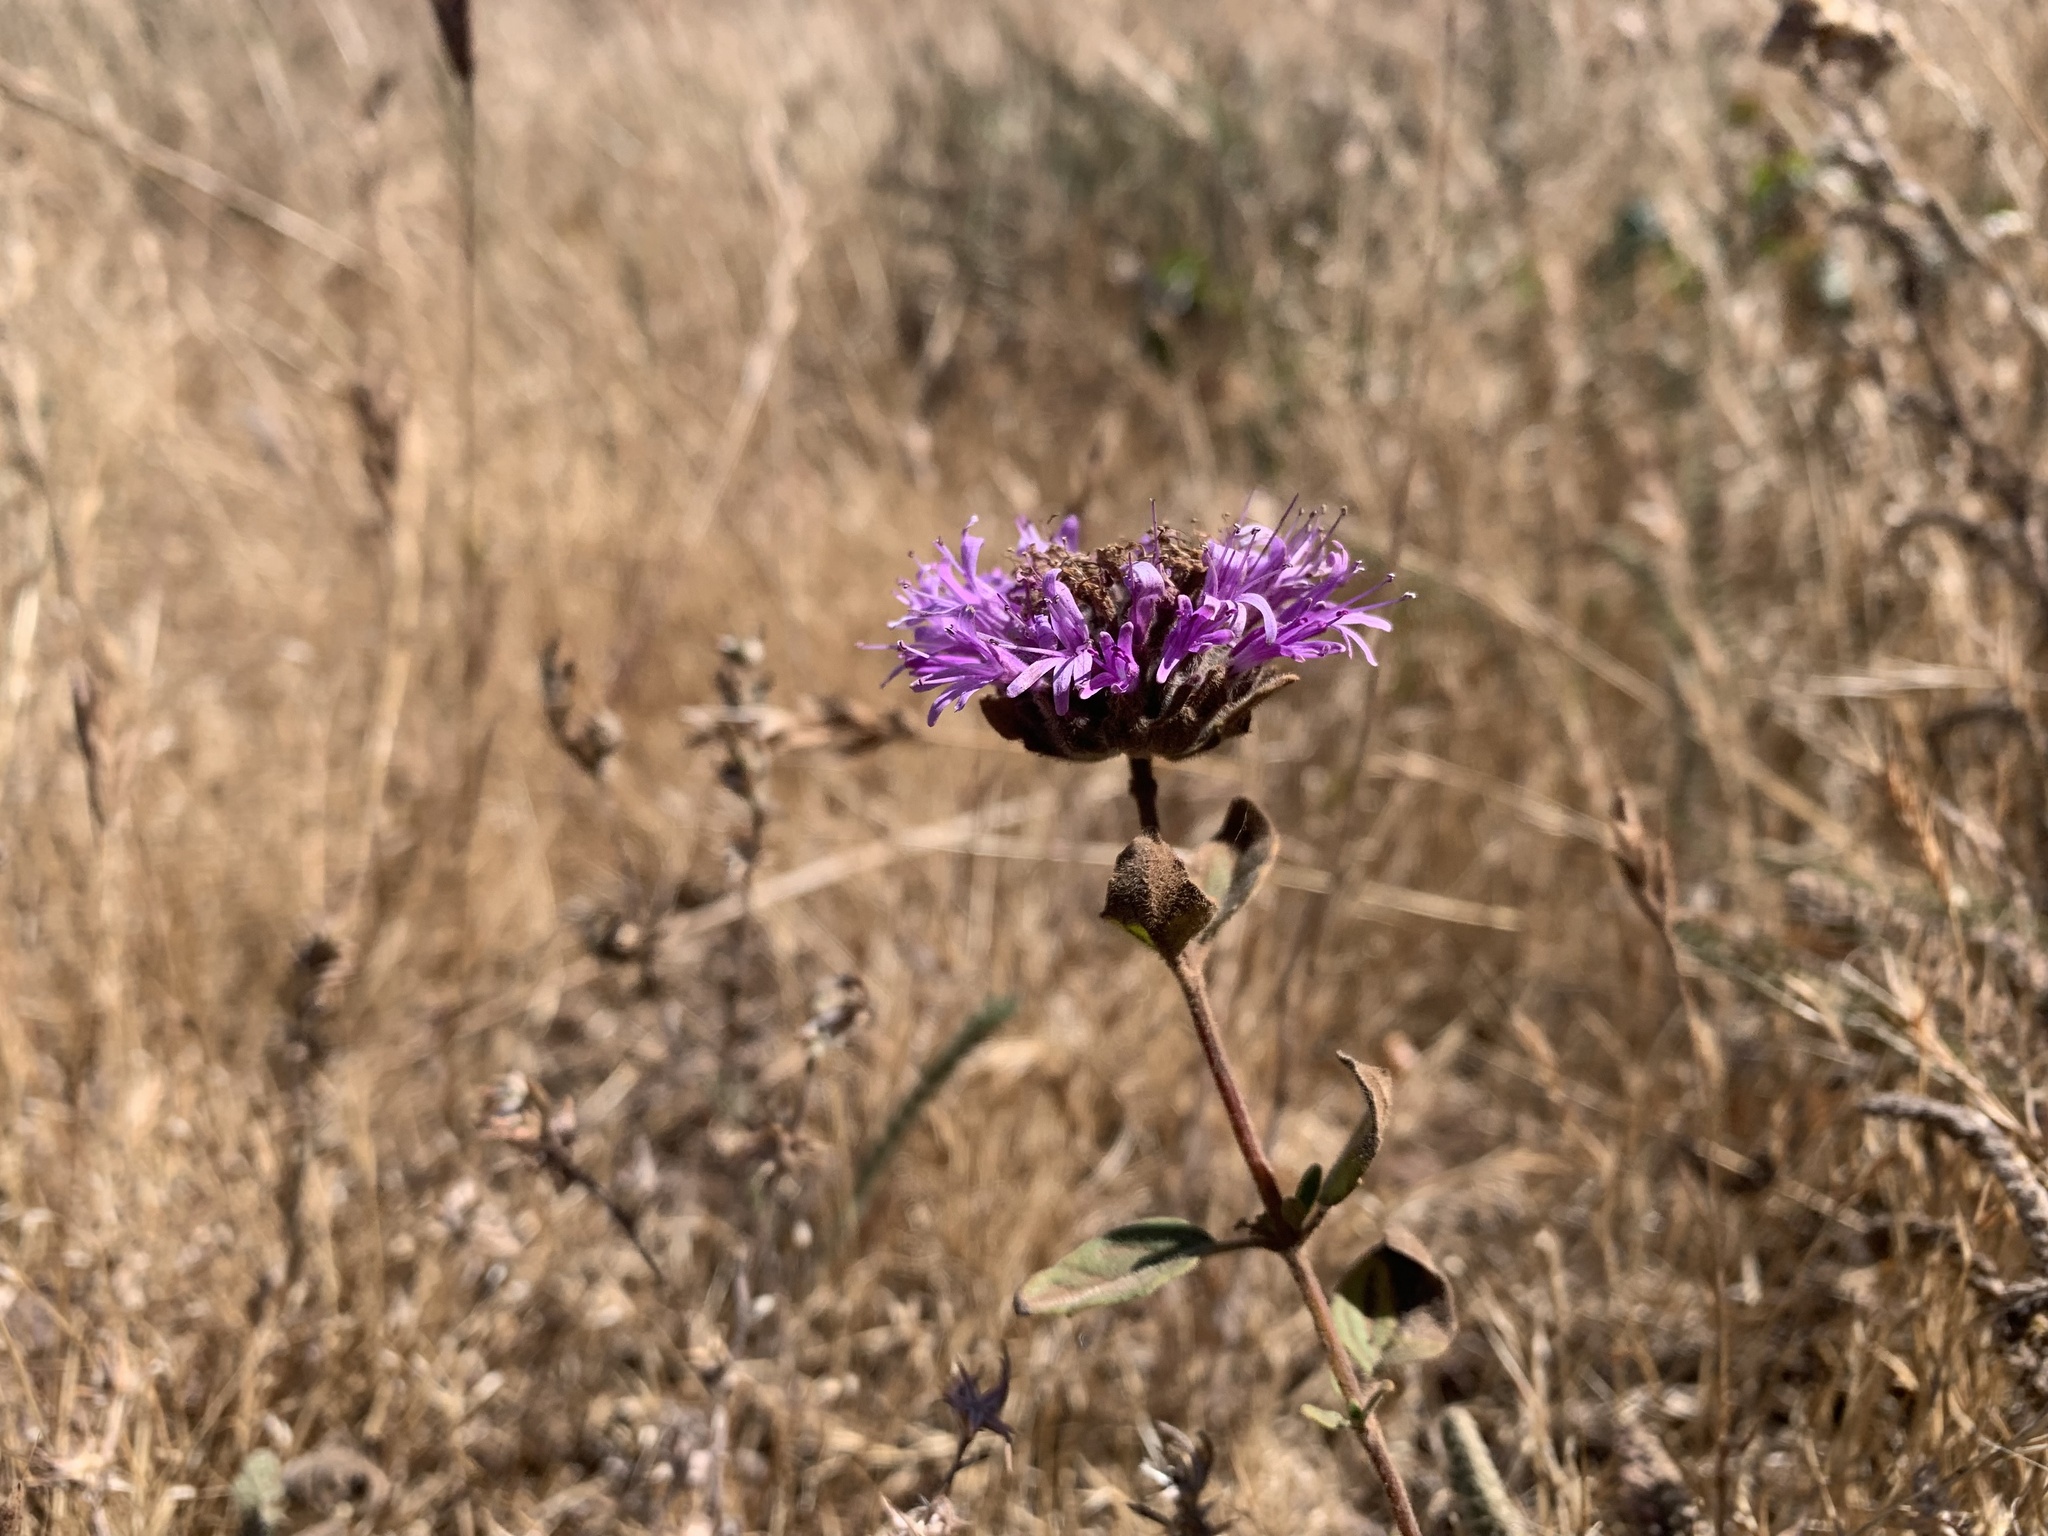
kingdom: Plantae
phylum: Tracheophyta
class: Magnoliopsida
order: Lamiales
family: Lamiaceae
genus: Monardella
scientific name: Monardella odoratissima
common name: Pacific monardella
